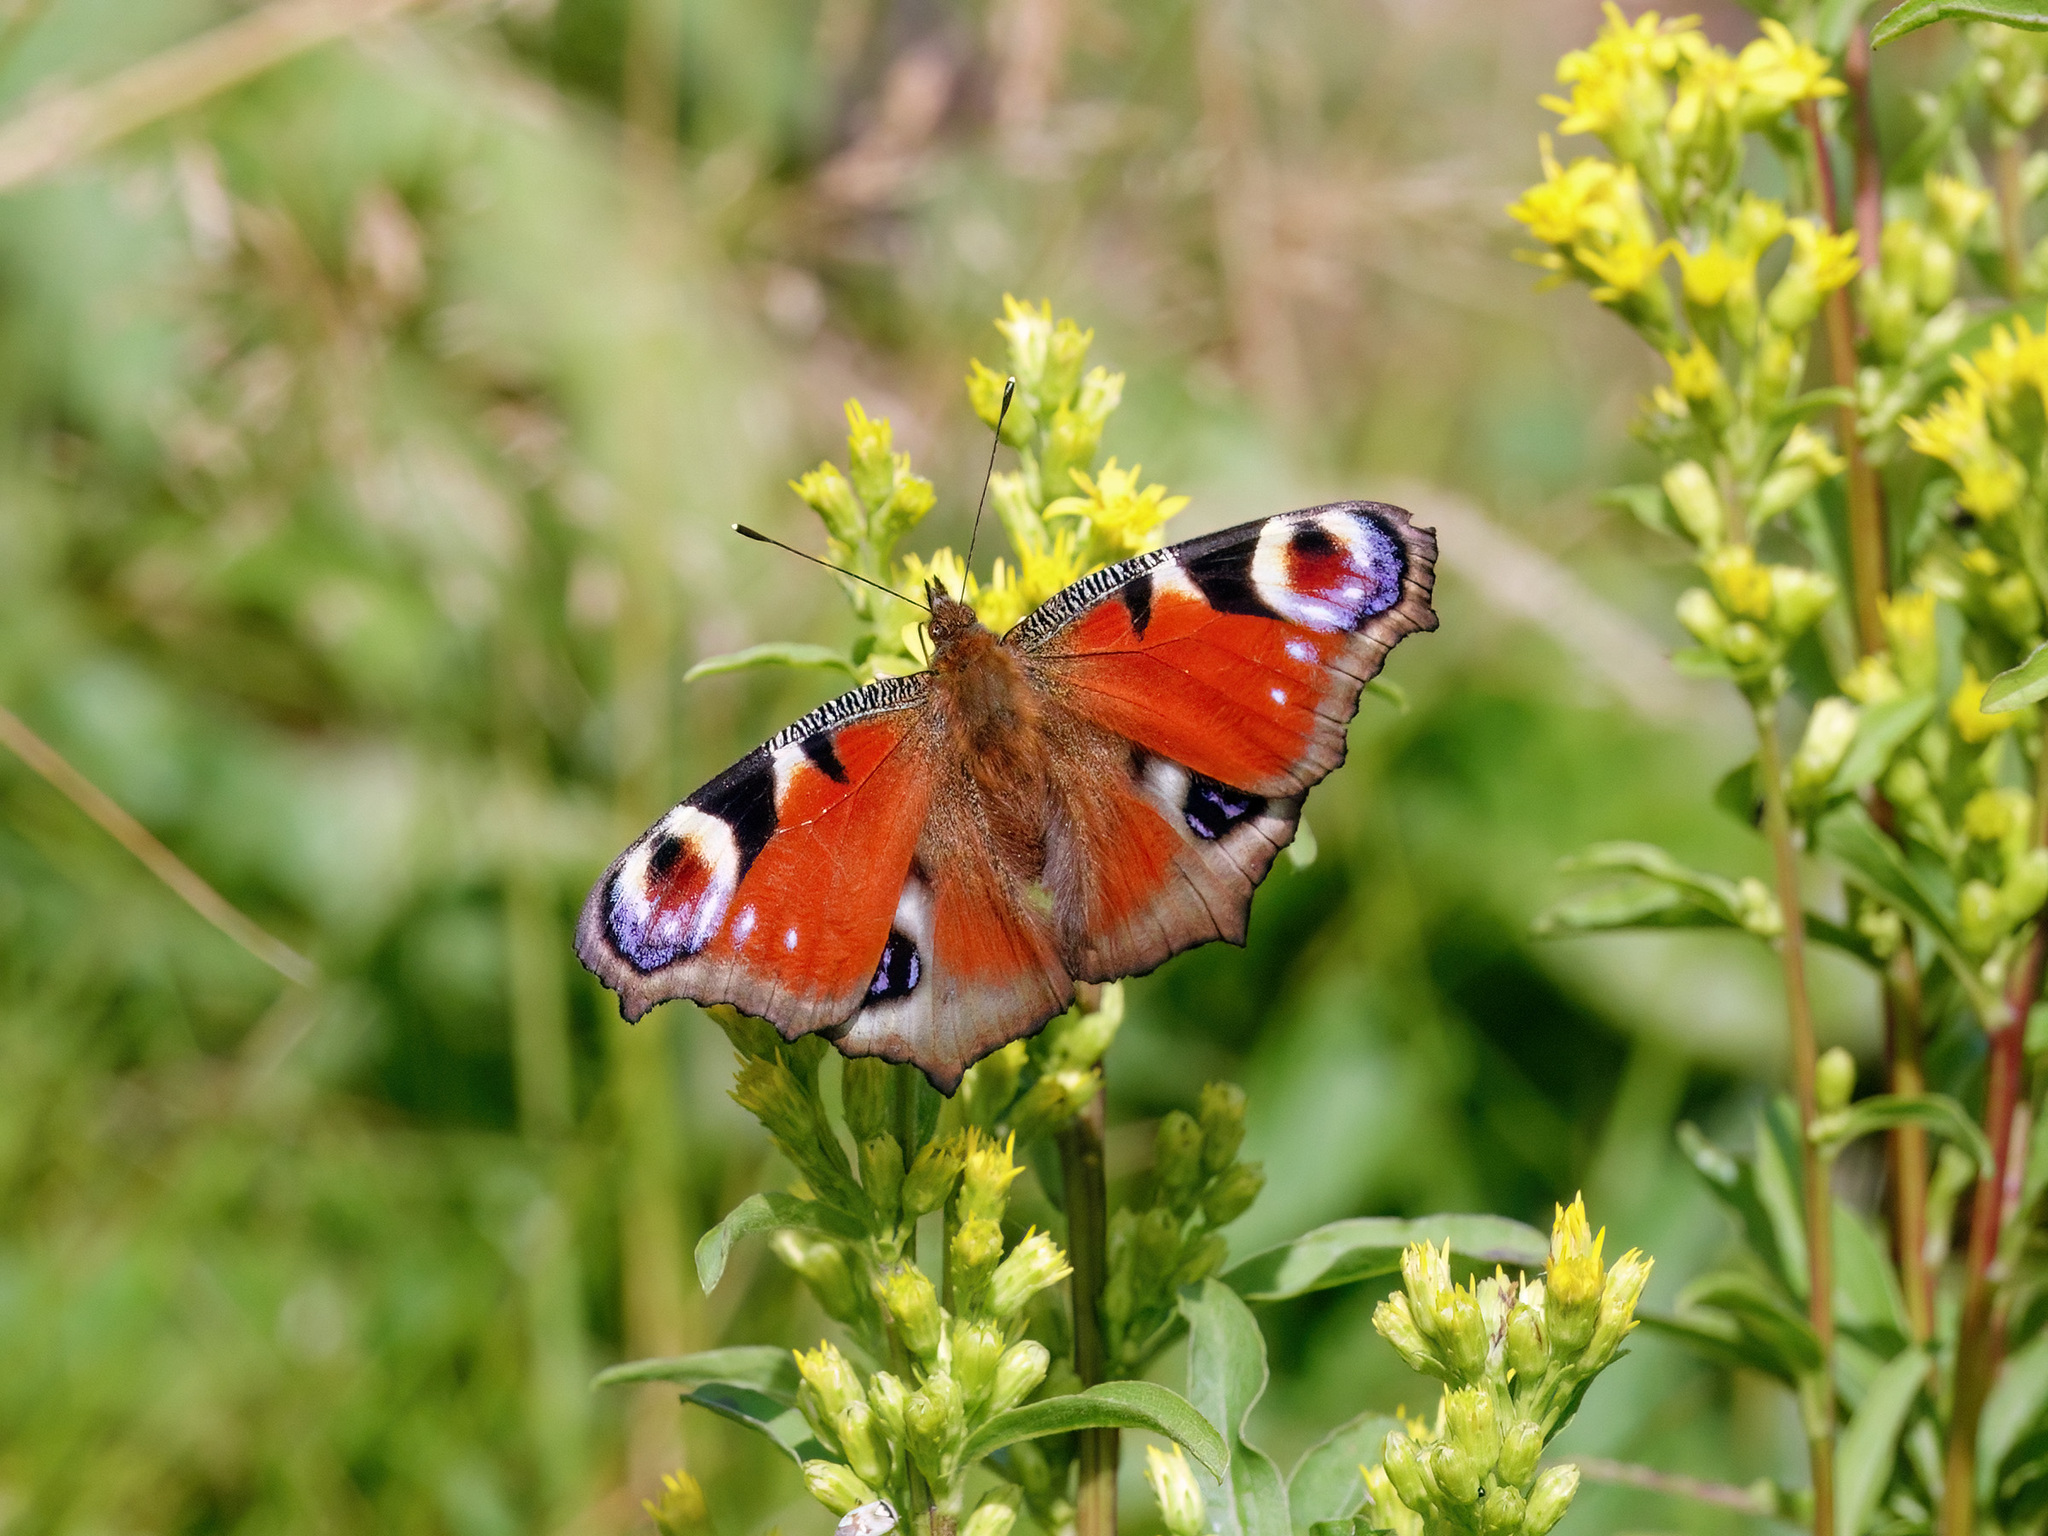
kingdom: Animalia
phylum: Arthropoda
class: Insecta
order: Lepidoptera
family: Nymphalidae
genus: Aglais
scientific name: Aglais io
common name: Peacock
